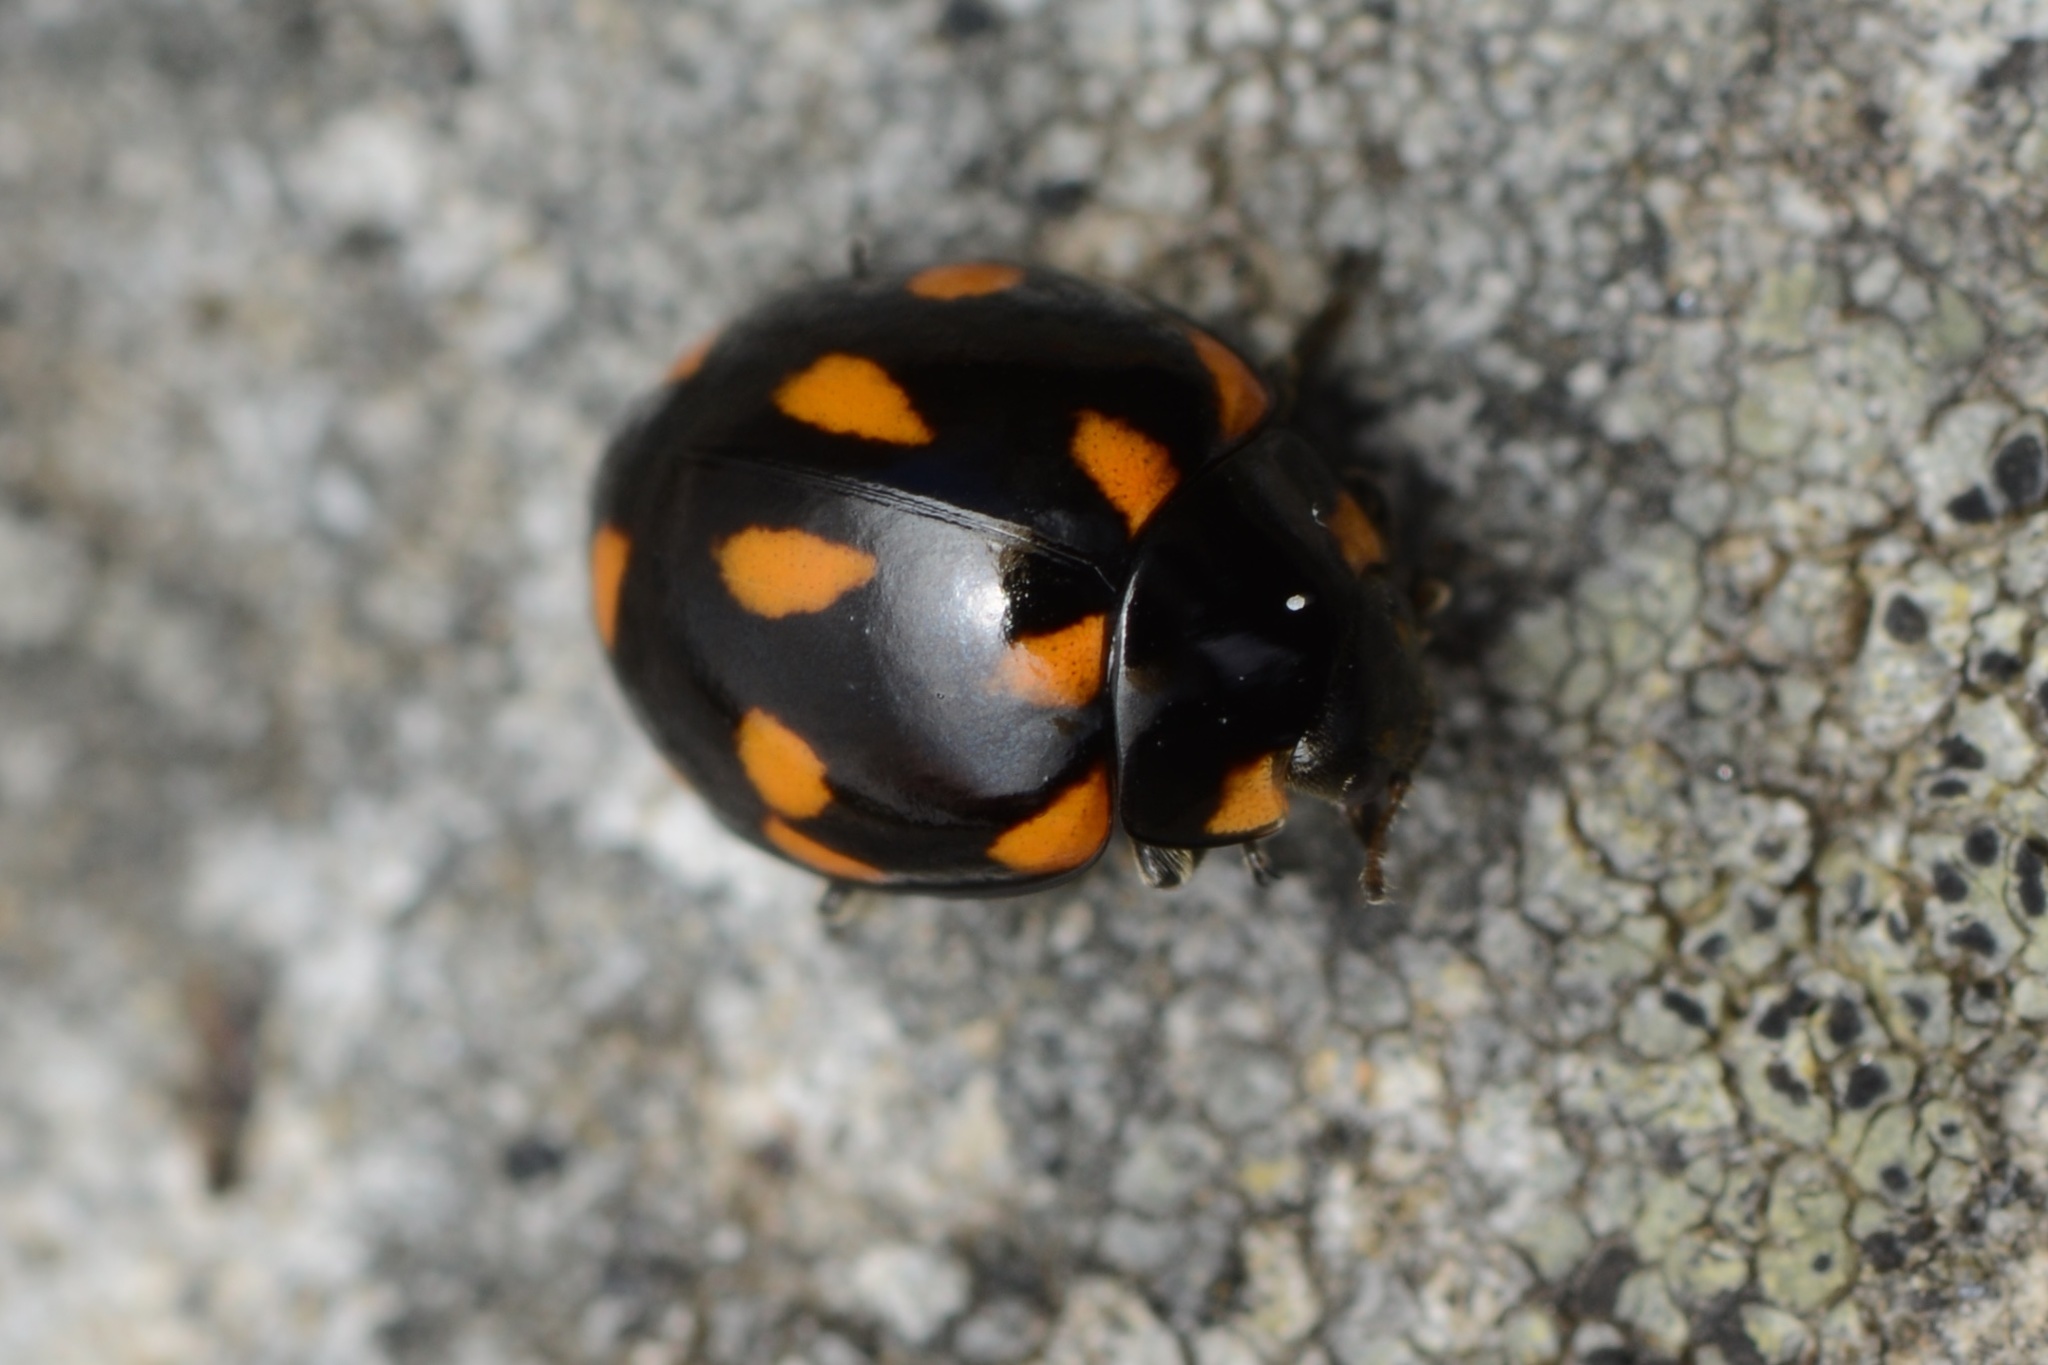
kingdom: Animalia
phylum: Arthropoda
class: Insecta
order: Coleoptera
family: Coccinellidae
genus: Coccinella
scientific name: Coccinella leonina
